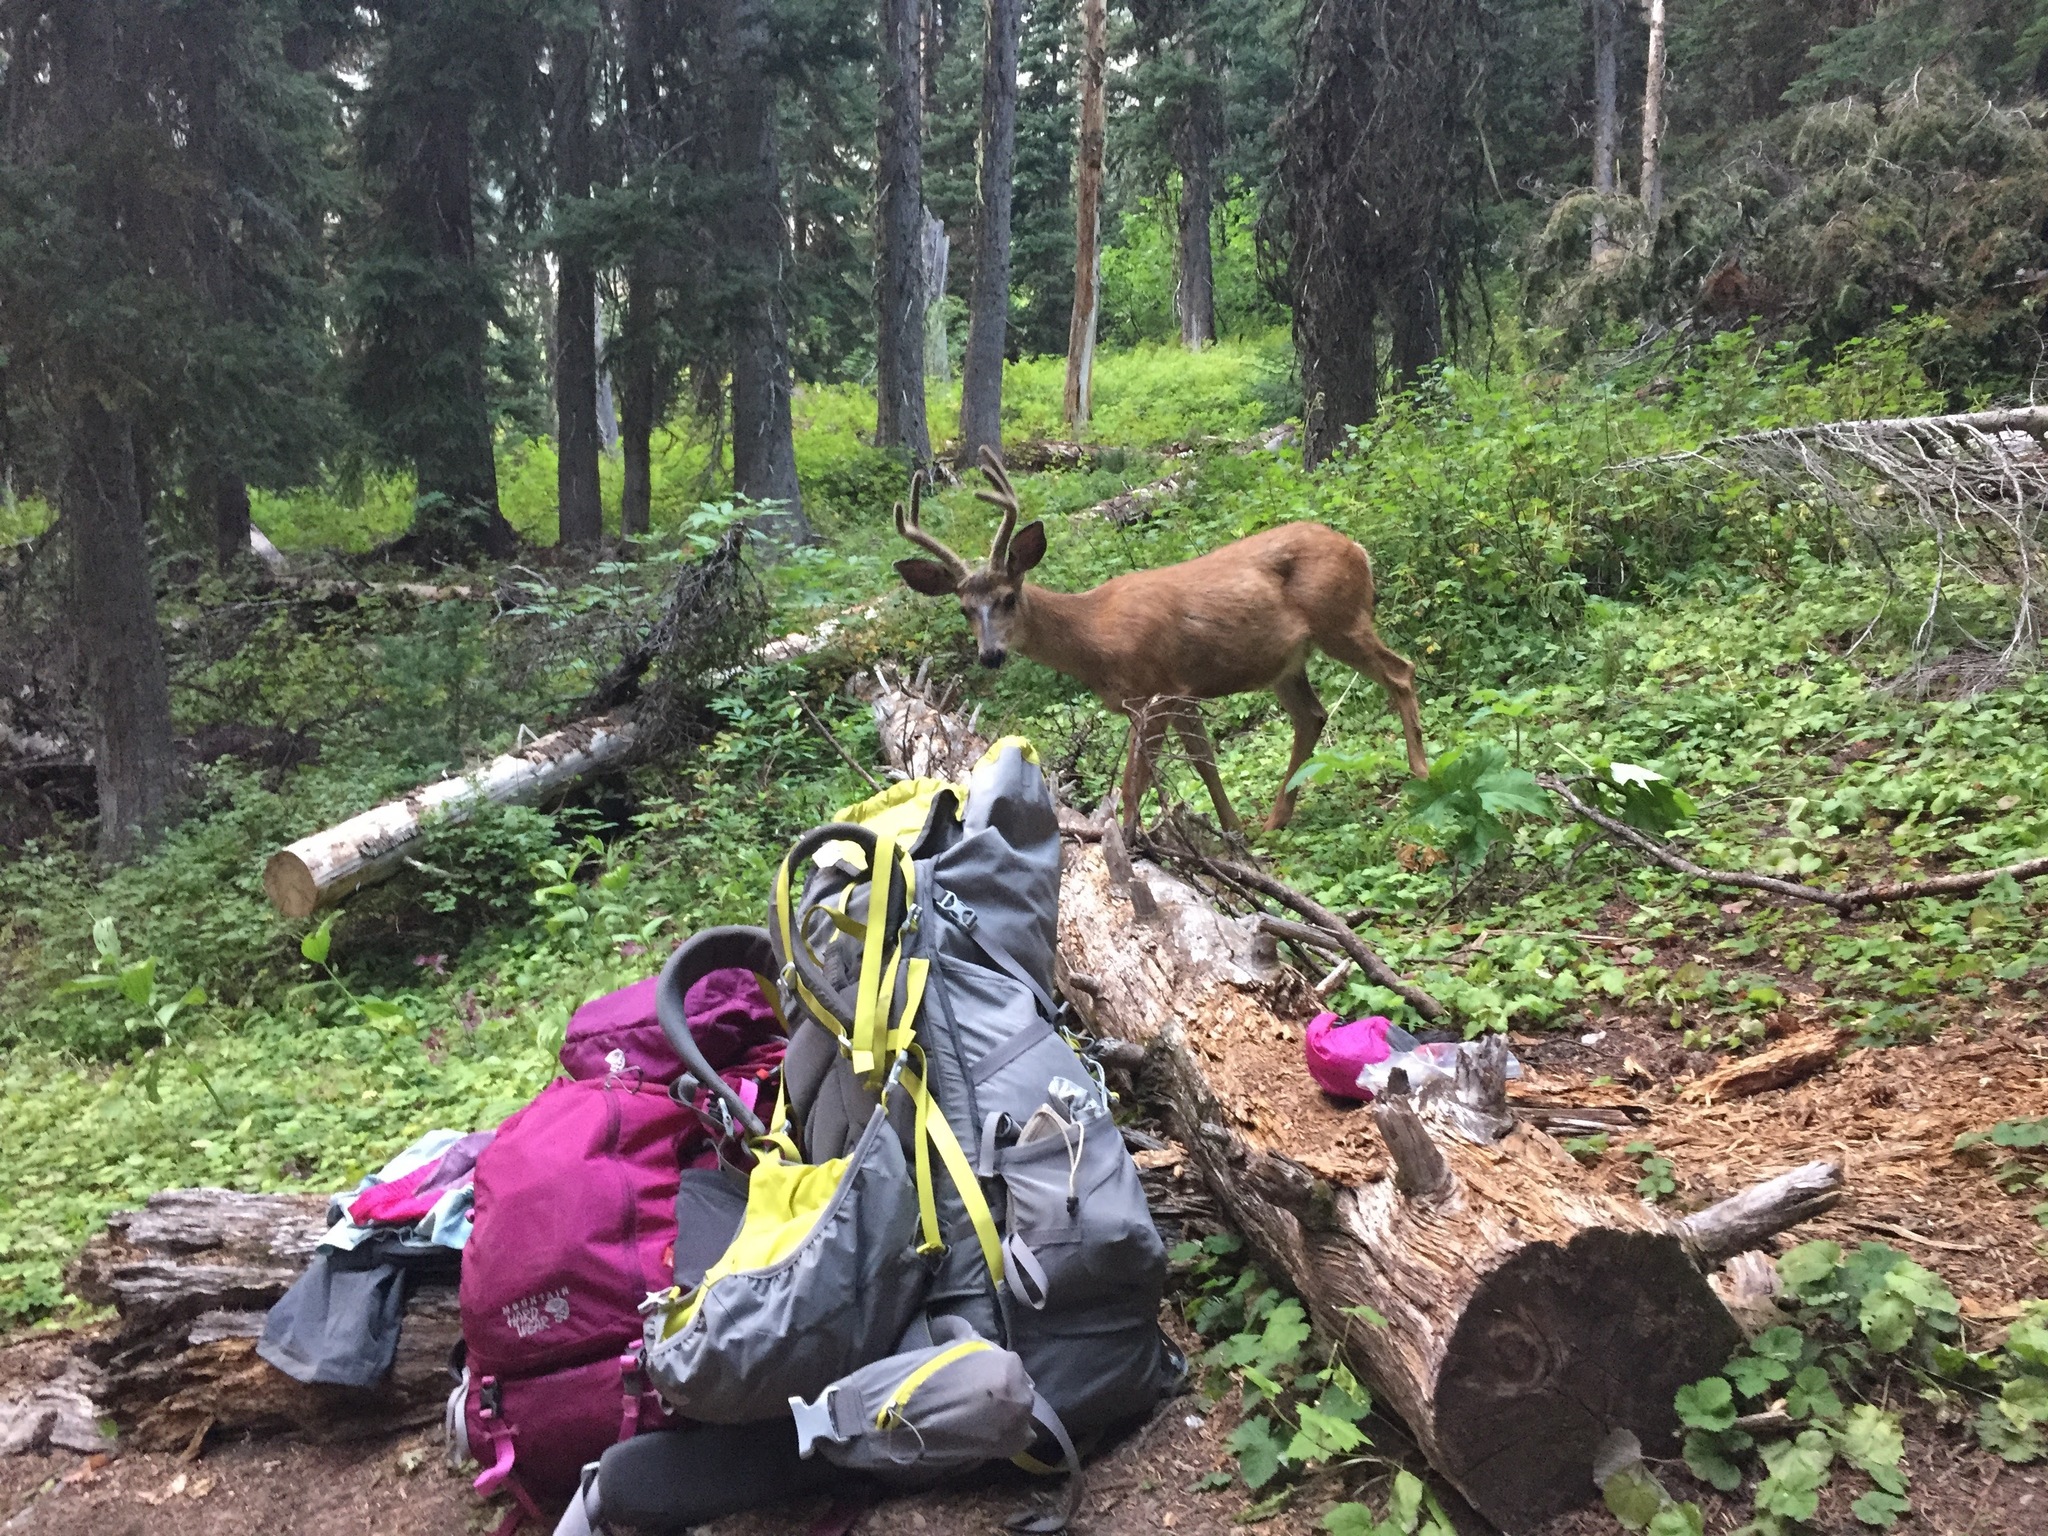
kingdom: Animalia
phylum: Chordata
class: Mammalia
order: Artiodactyla
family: Cervidae
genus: Odocoileus
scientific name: Odocoileus hemionus
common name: Mule deer
